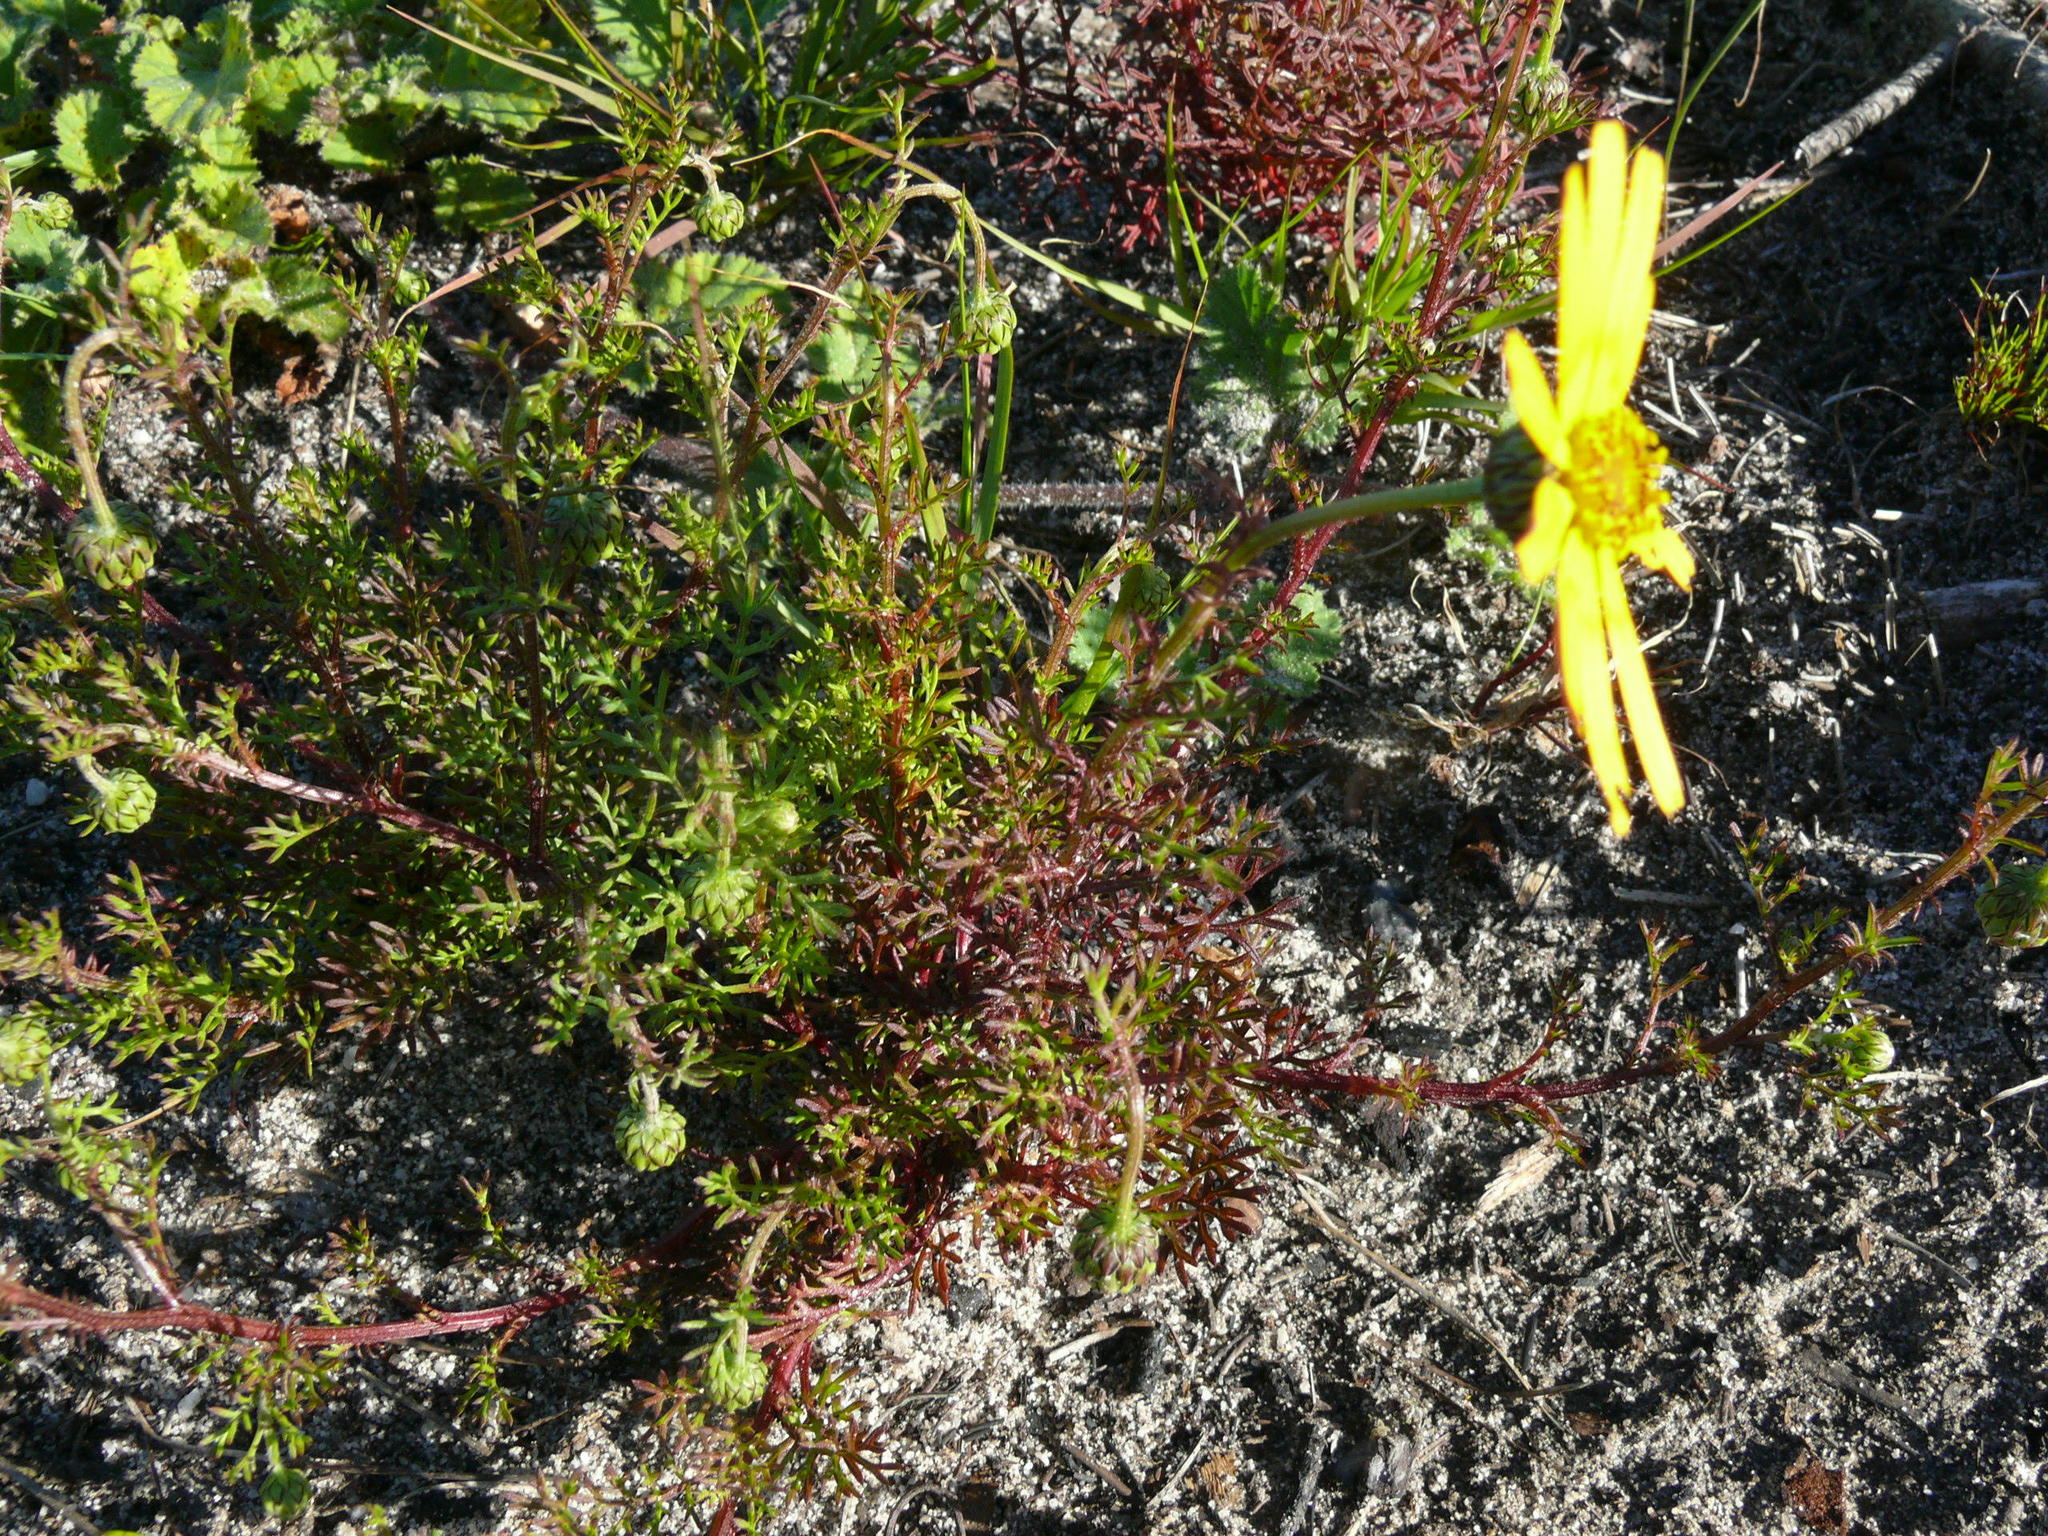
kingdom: Plantae
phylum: Tracheophyta
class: Magnoliopsida
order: Asterales
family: Asteraceae
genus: Ursinia
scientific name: Ursinia paleacea
